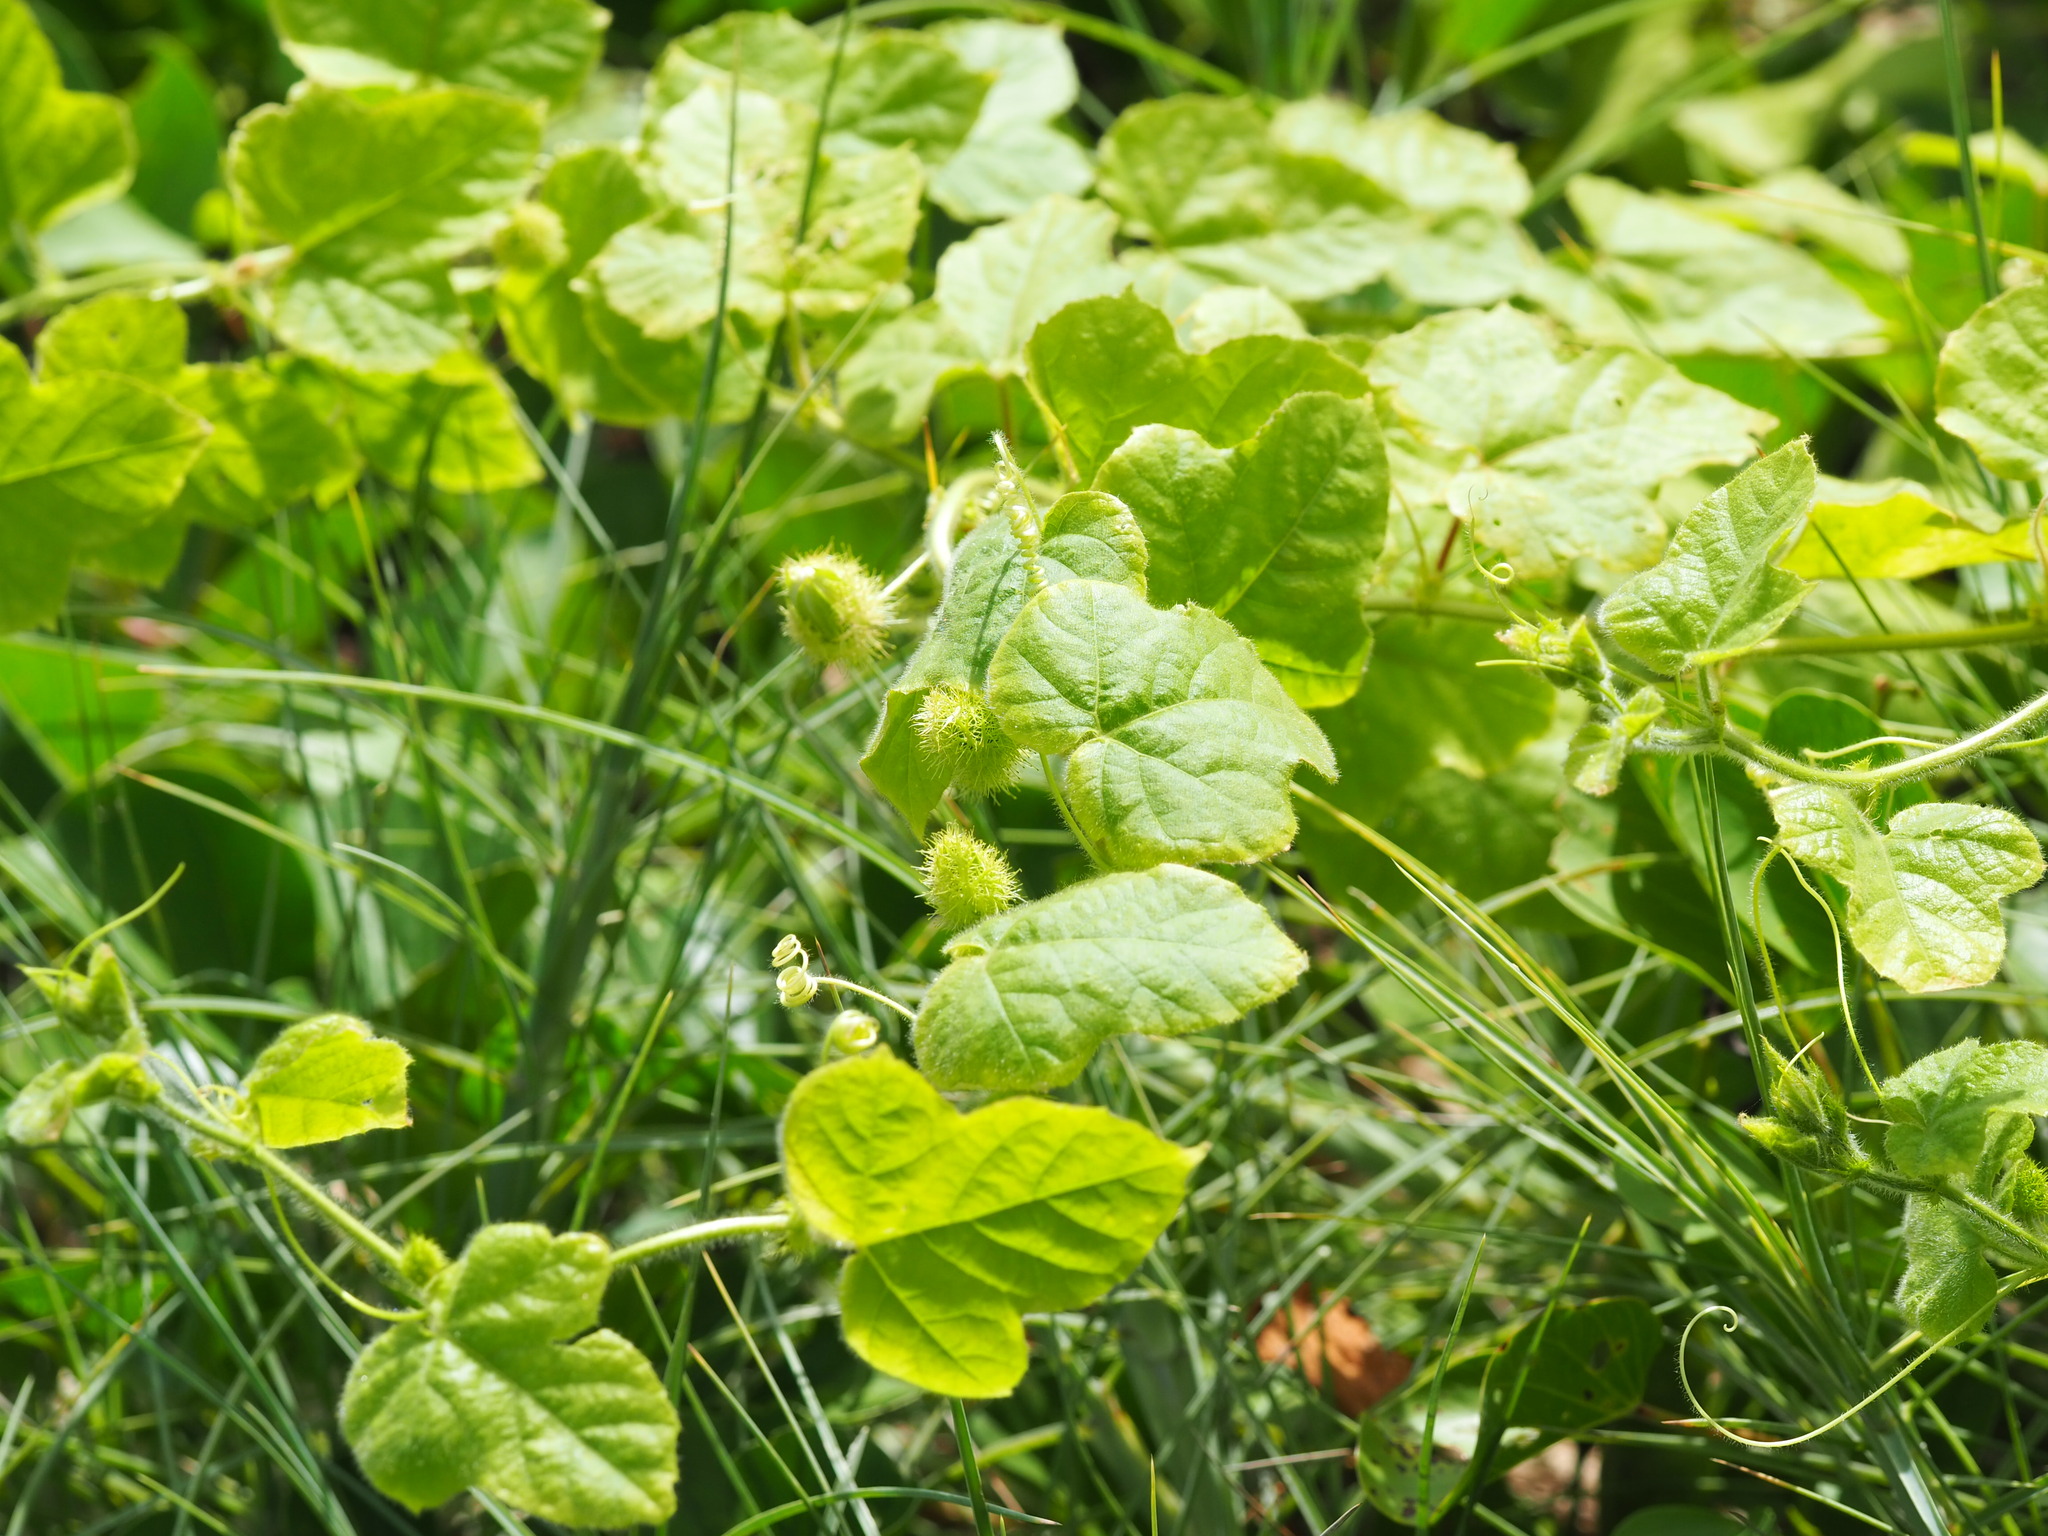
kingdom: Plantae
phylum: Tracheophyta
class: Magnoliopsida
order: Malpighiales
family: Passifloraceae
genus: Passiflora
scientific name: Passiflora vesicaria
